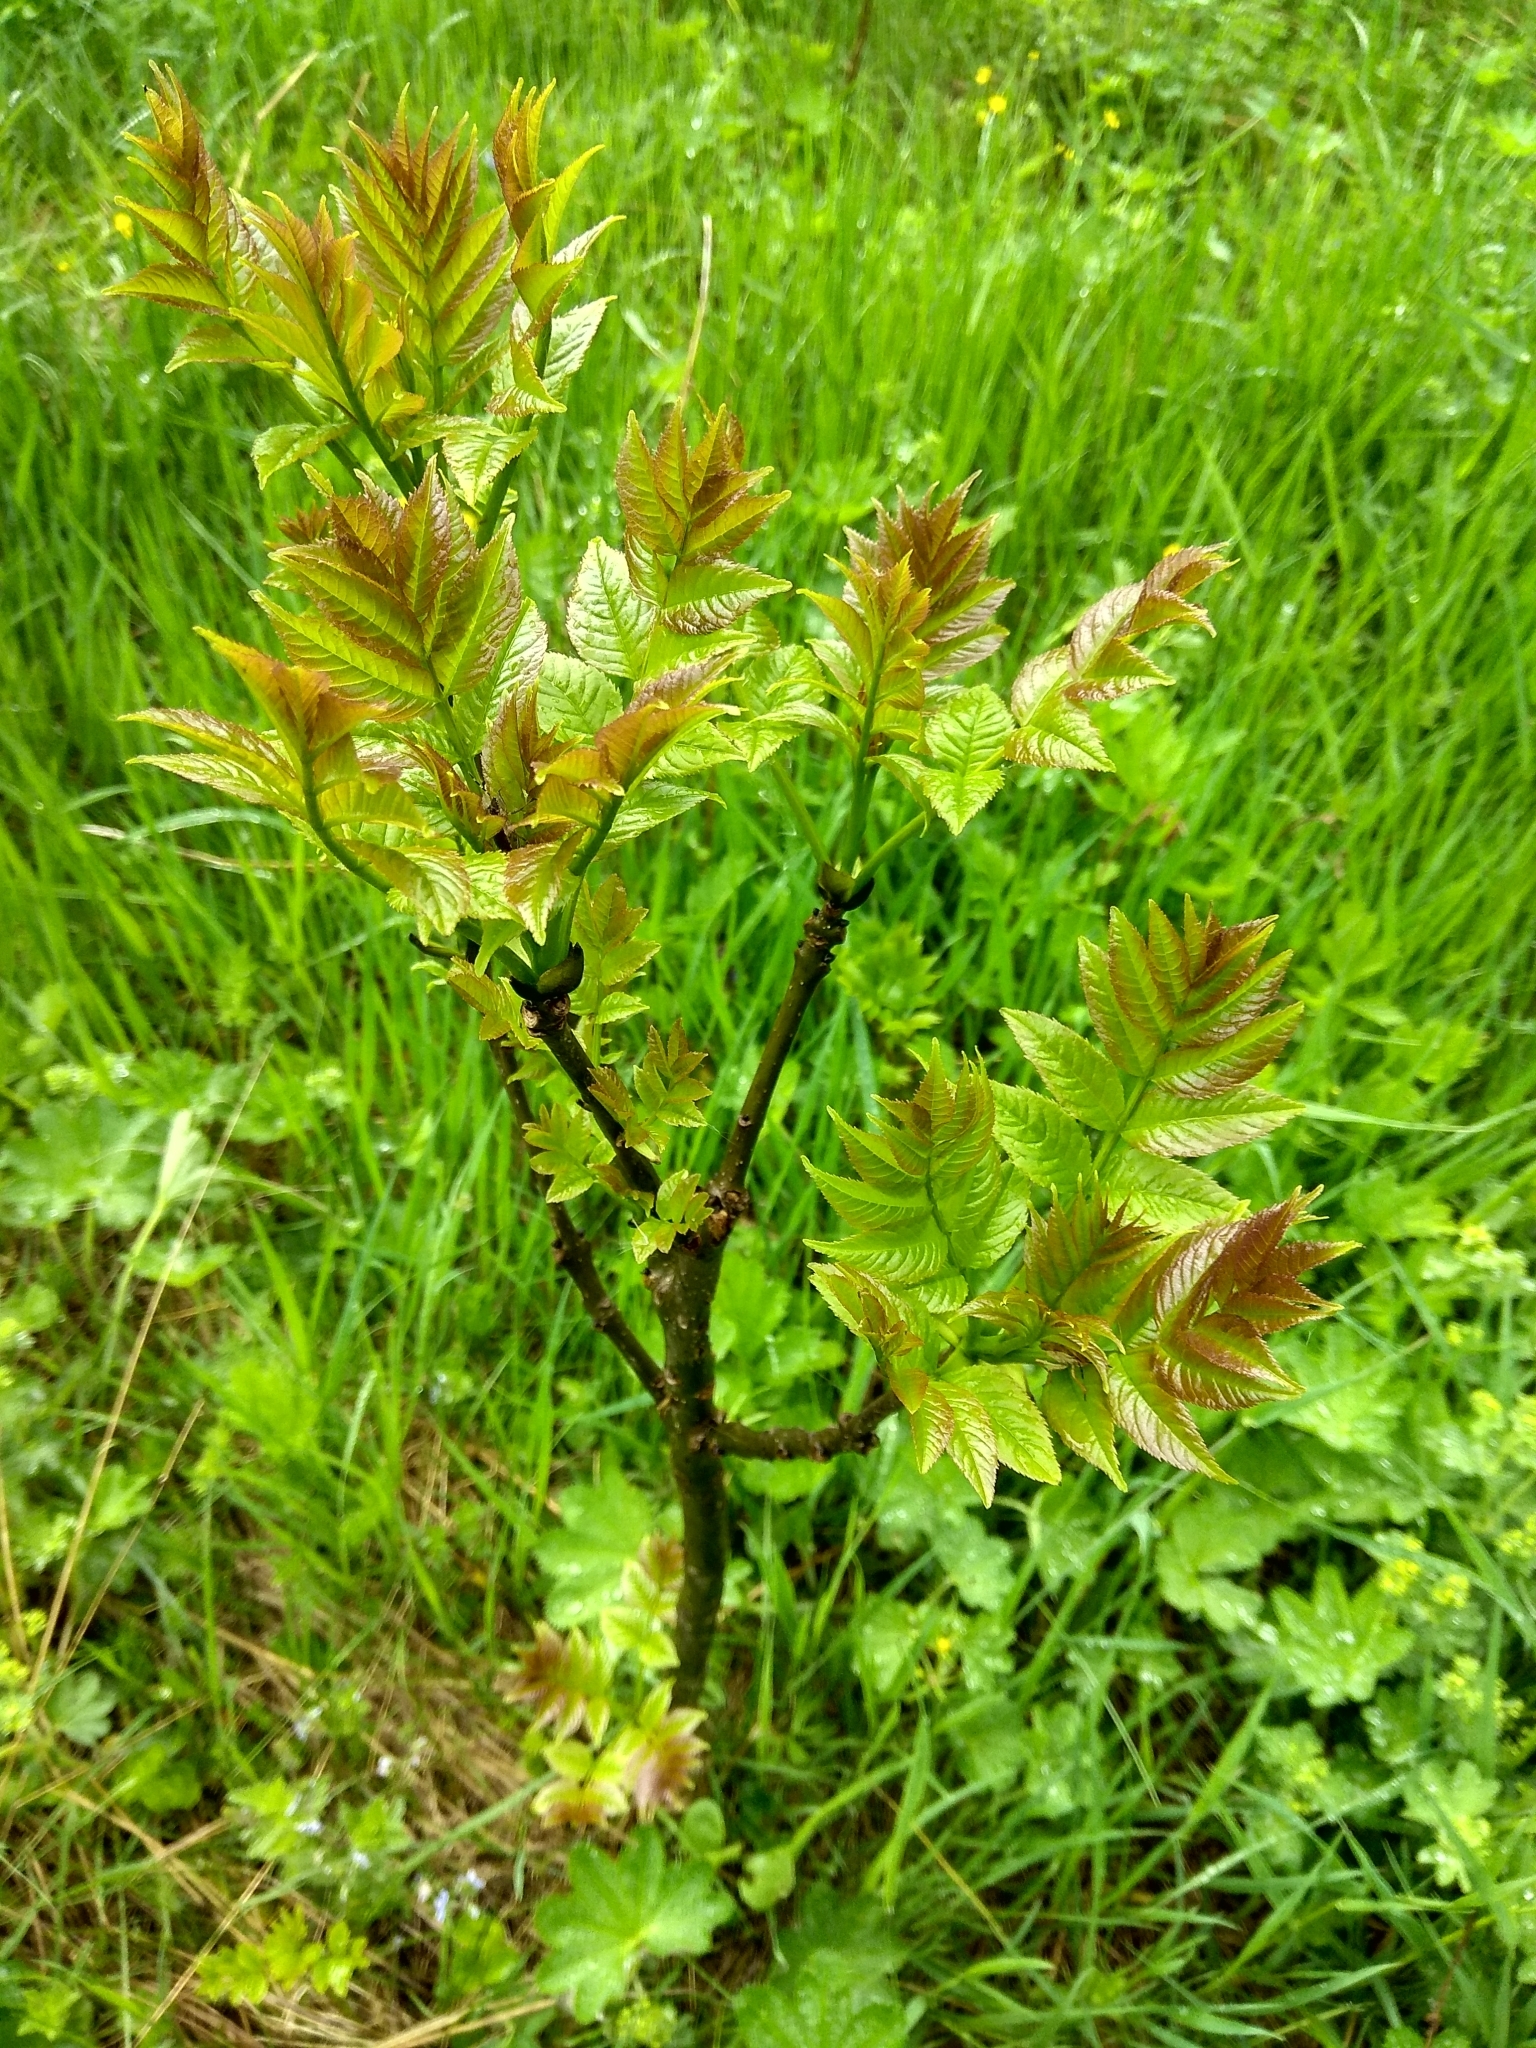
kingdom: Plantae
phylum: Tracheophyta
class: Magnoliopsida
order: Lamiales
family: Oleaceae
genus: Fraxinus
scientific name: Fraxinus excelsior
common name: European ash
